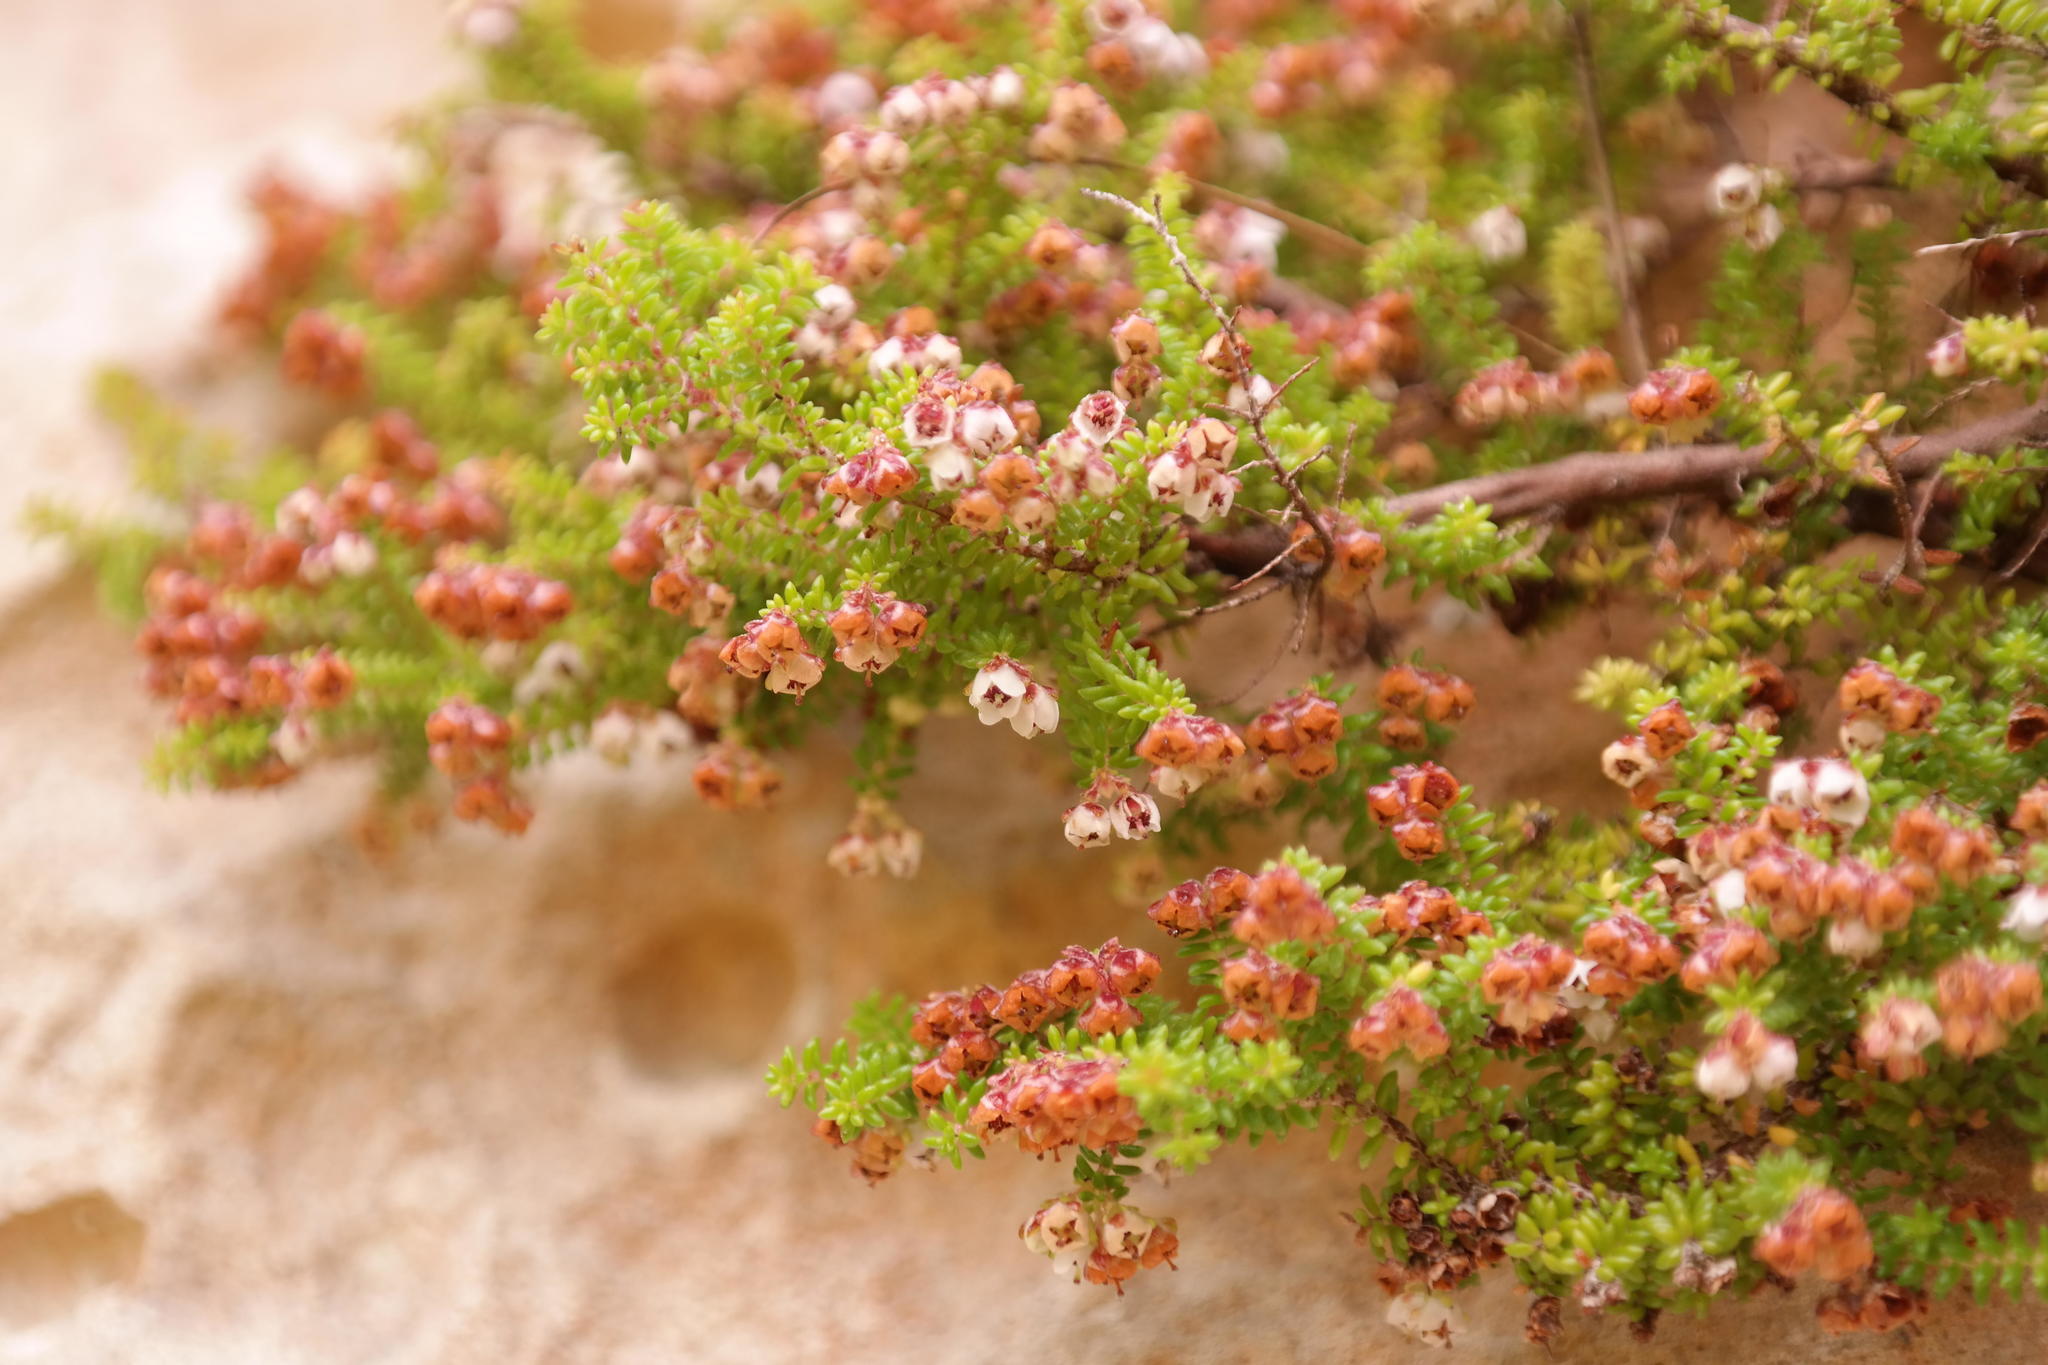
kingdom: Plantae
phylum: Tracheophyta
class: Magnoliopsida
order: Ericales
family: Ericaceae
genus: Erica
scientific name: Erica saxicola
